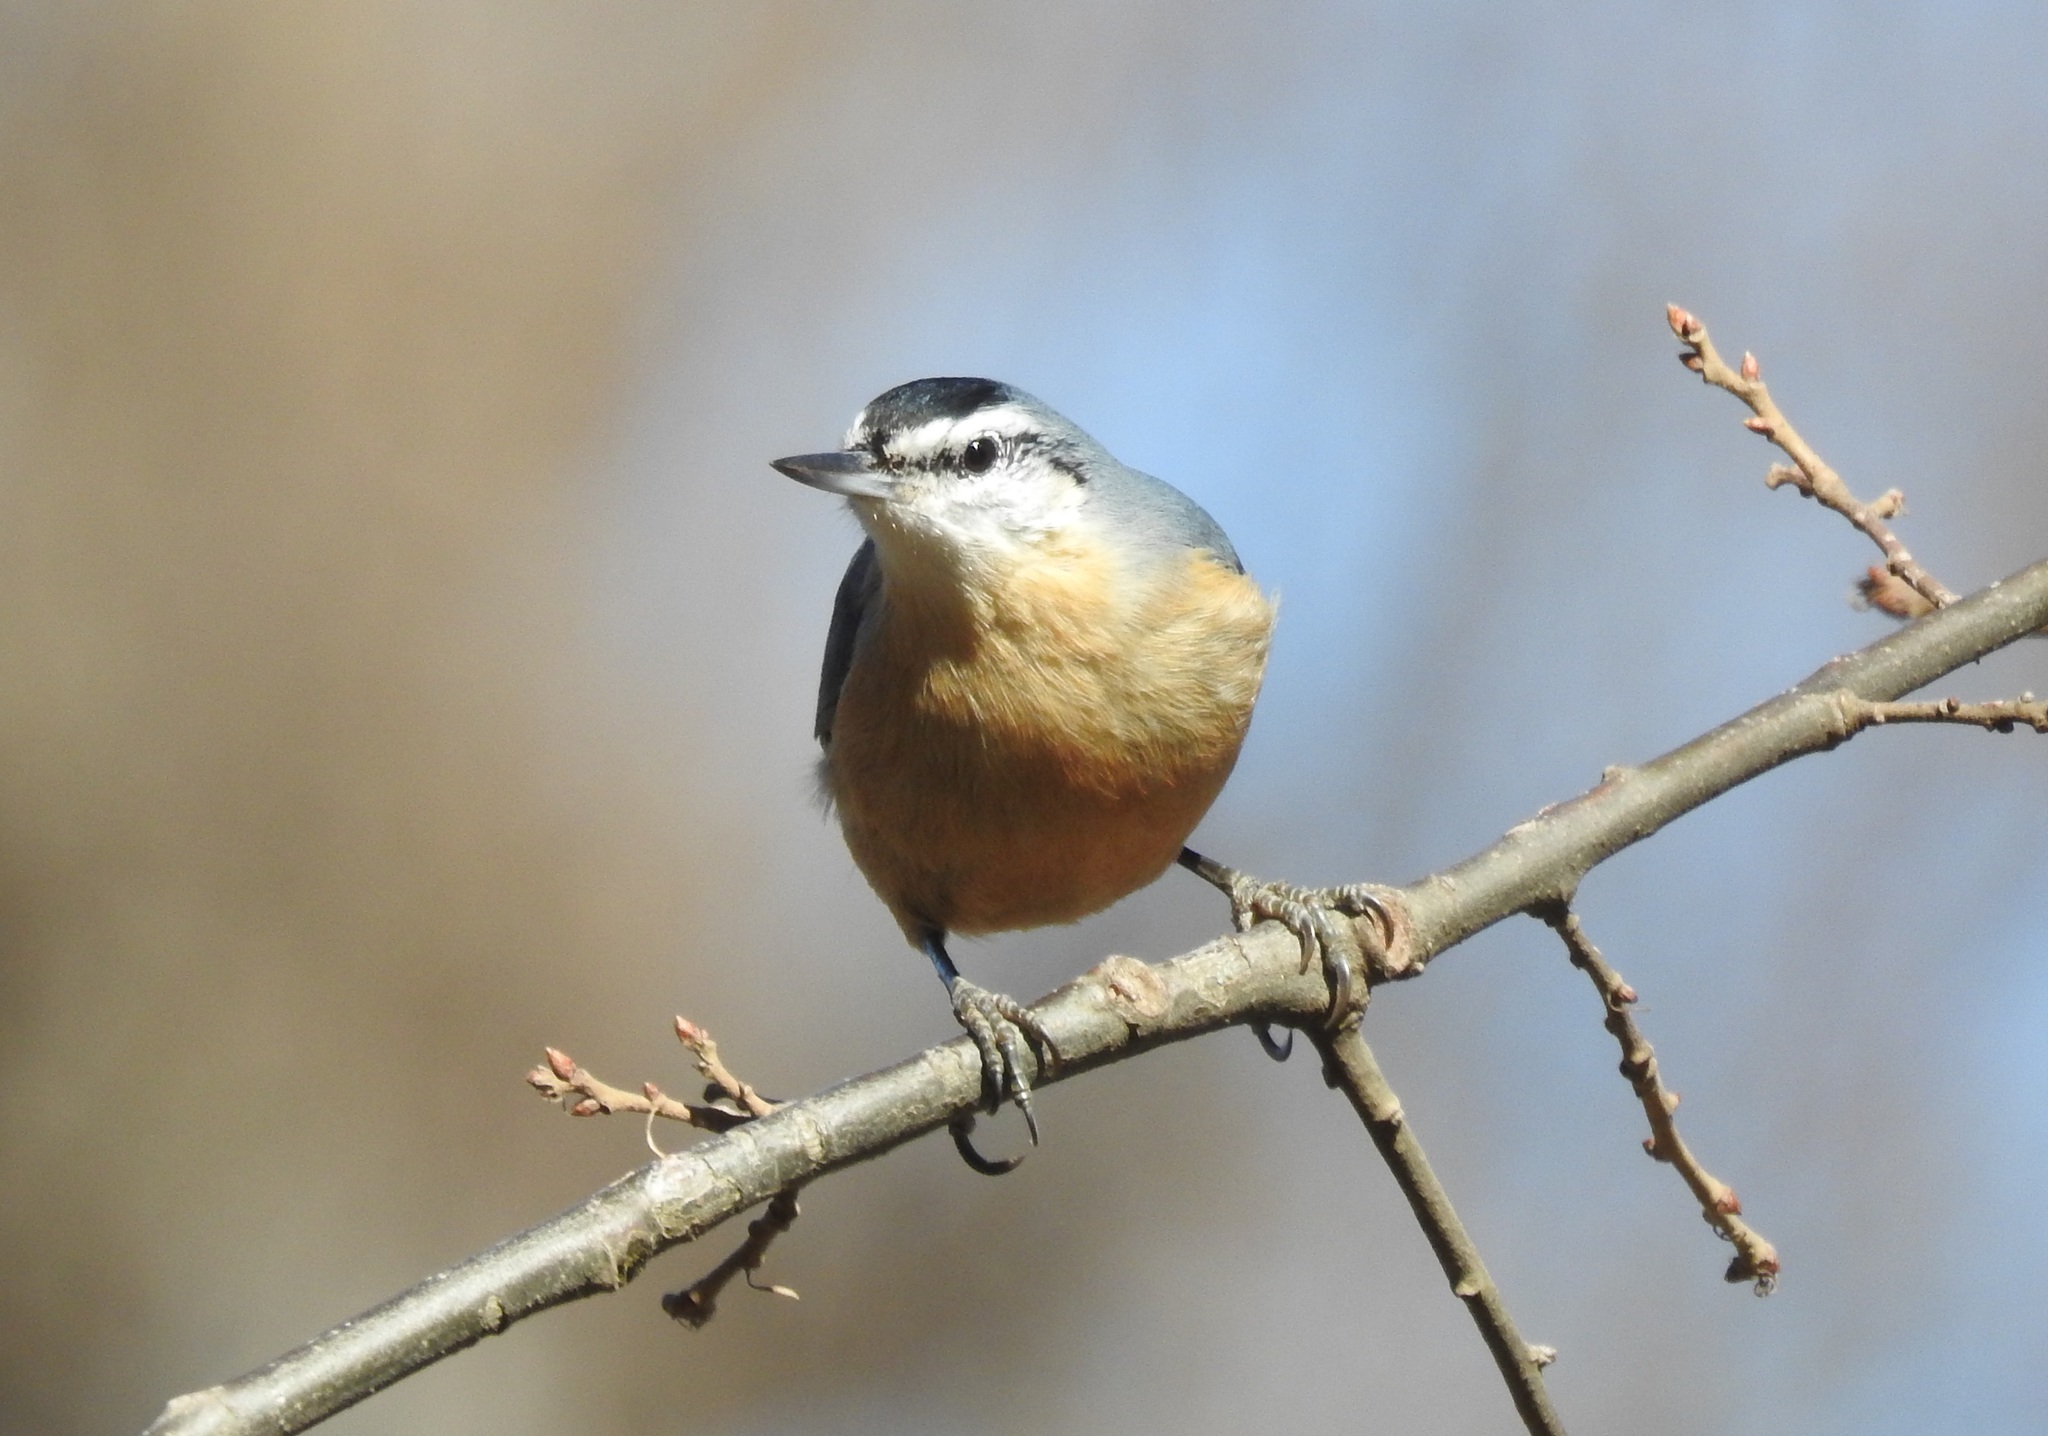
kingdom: Animalia
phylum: Chordata
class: Aves
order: Passeriformes
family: Sittidae
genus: Sitta
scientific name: Sitta ledanti
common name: Algerian nuthatch
